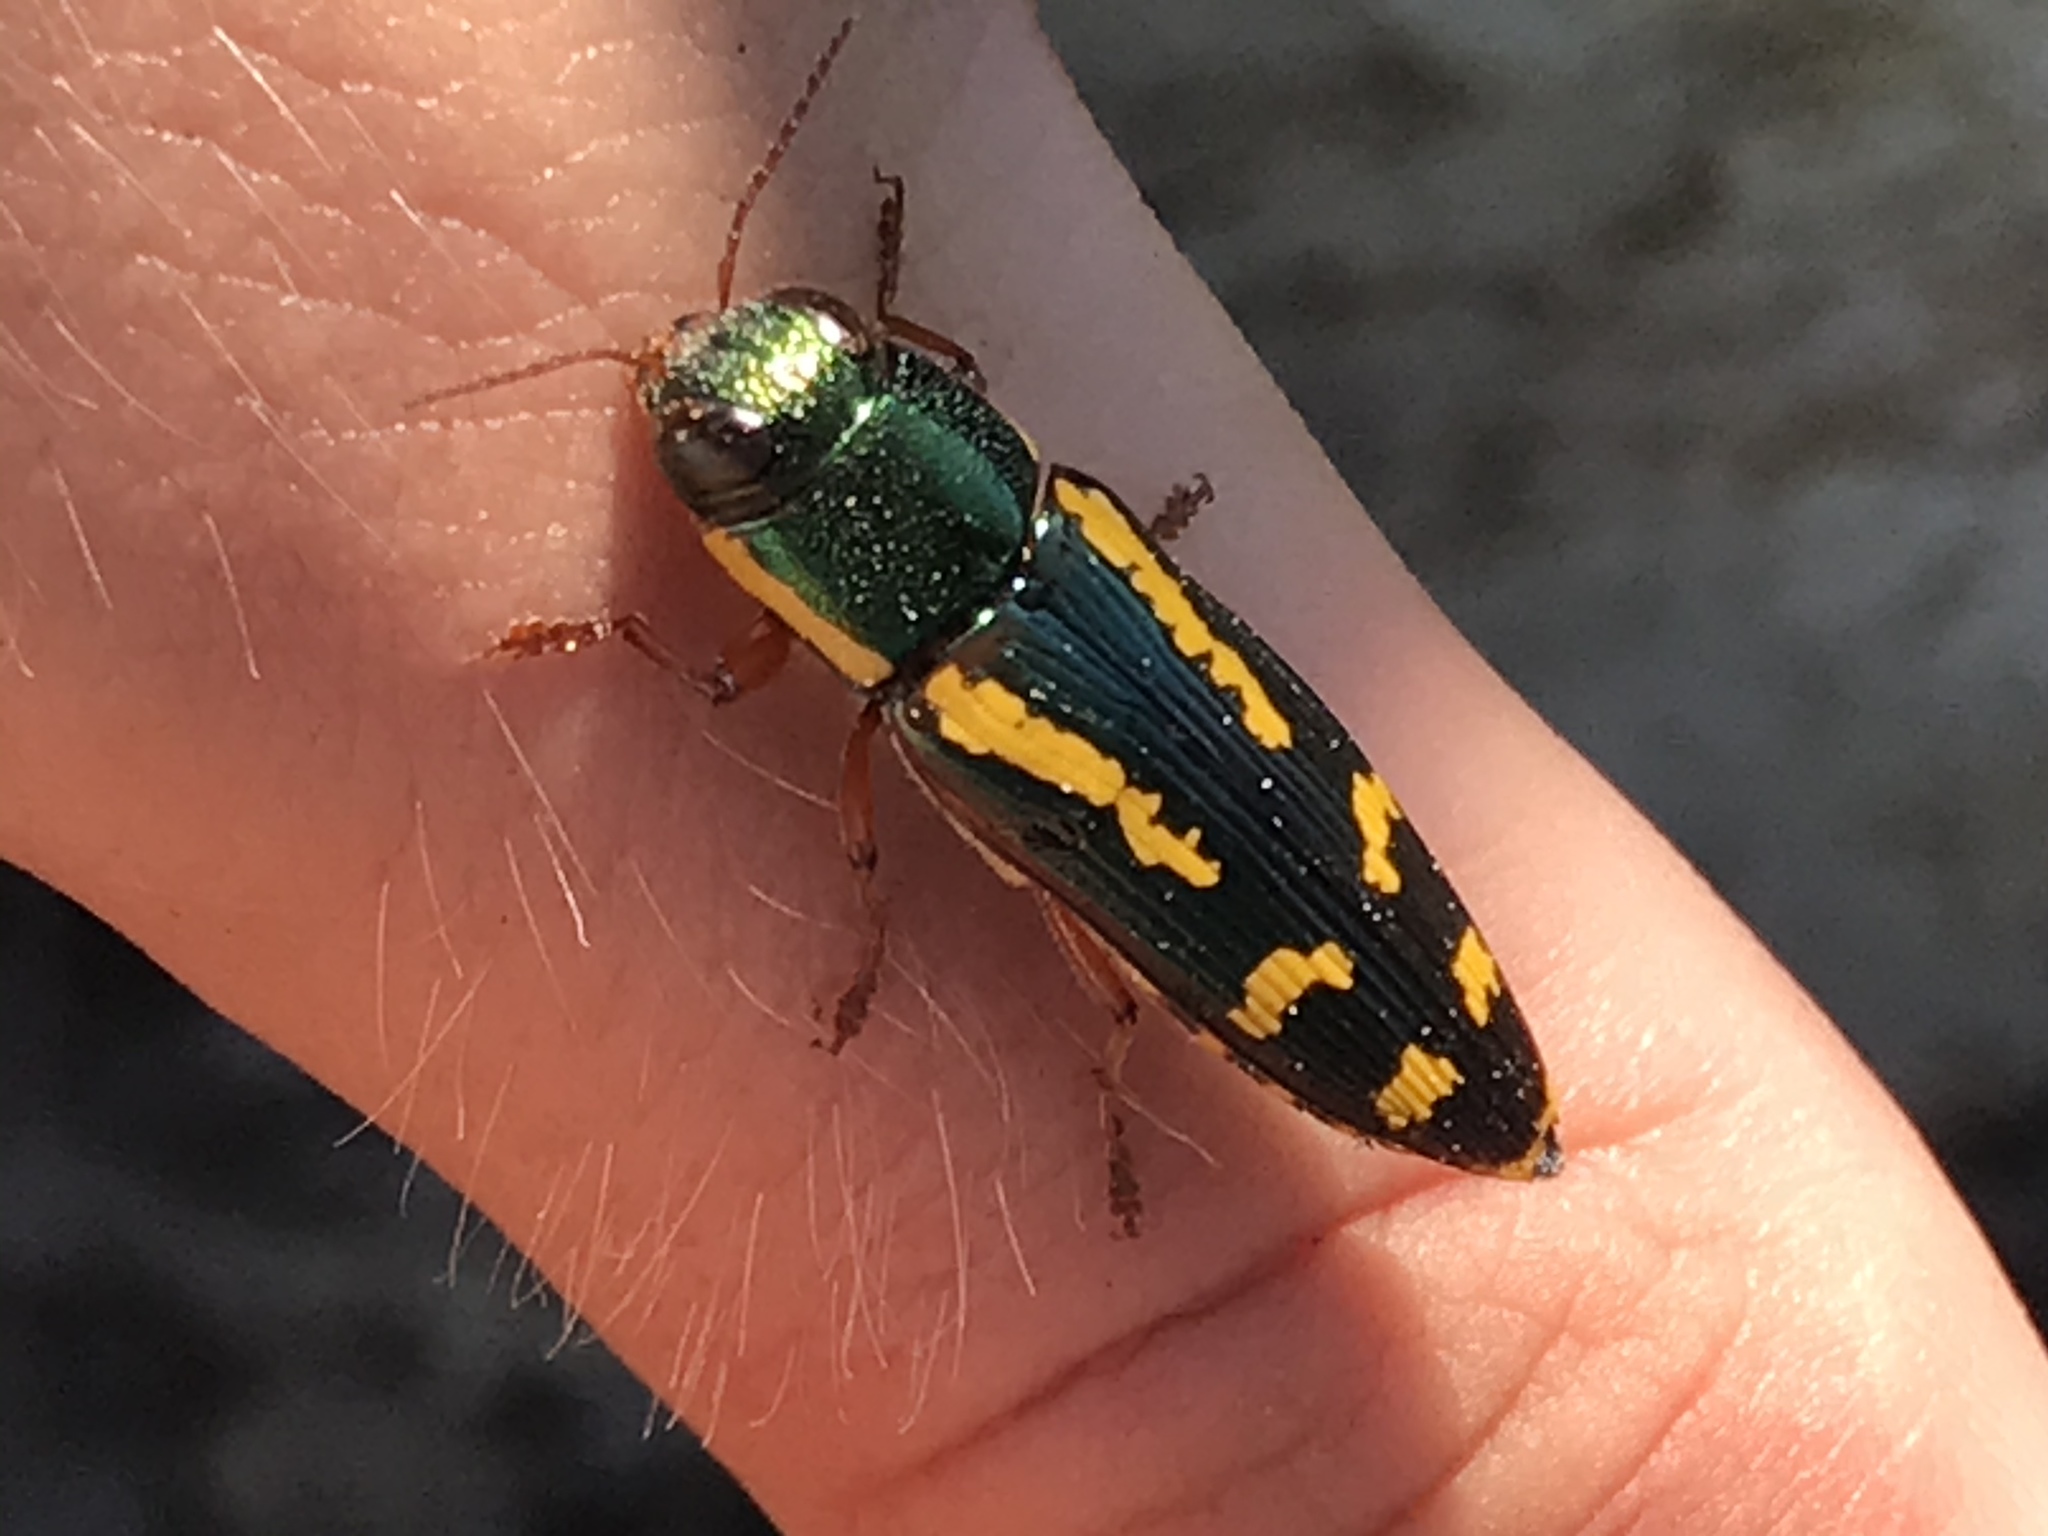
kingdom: Animalia
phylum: Arthropoda
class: Insecta
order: Coleoptera
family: Buprestidae
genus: Buprestis
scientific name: Buprestis rufipes
